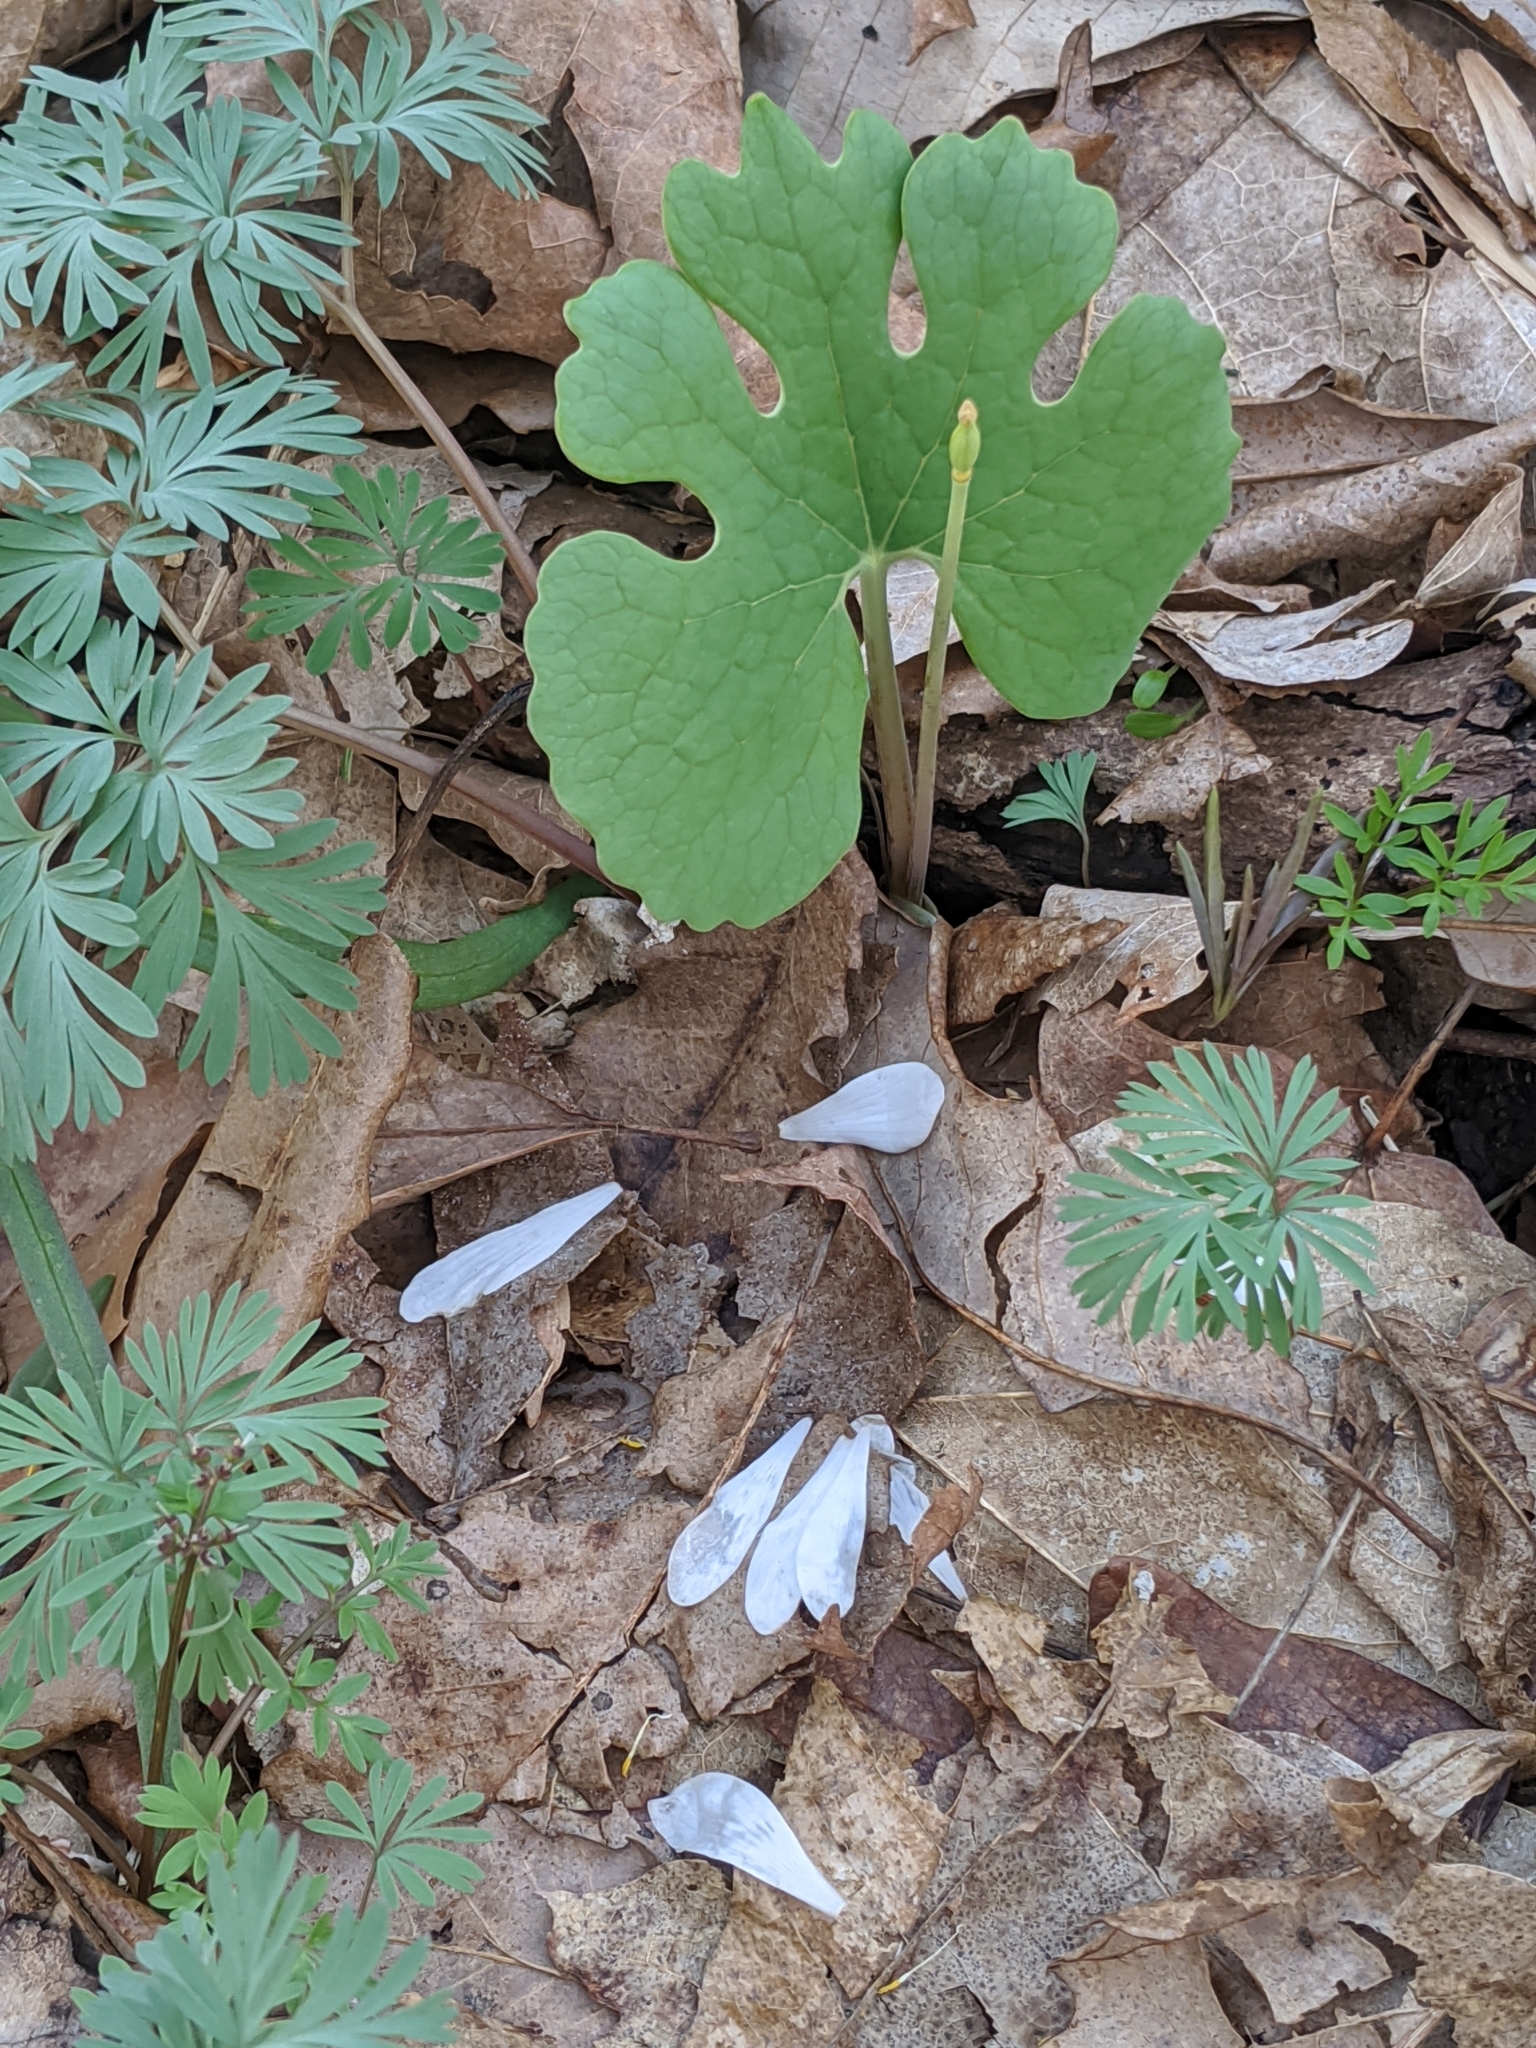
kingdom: Plantae
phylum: Tracheophyta
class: Magnoliopsida
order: Ranunculales
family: Papaveraceae
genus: Sanguinaria
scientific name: Sanguinaria canadensis
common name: Bloodroot
